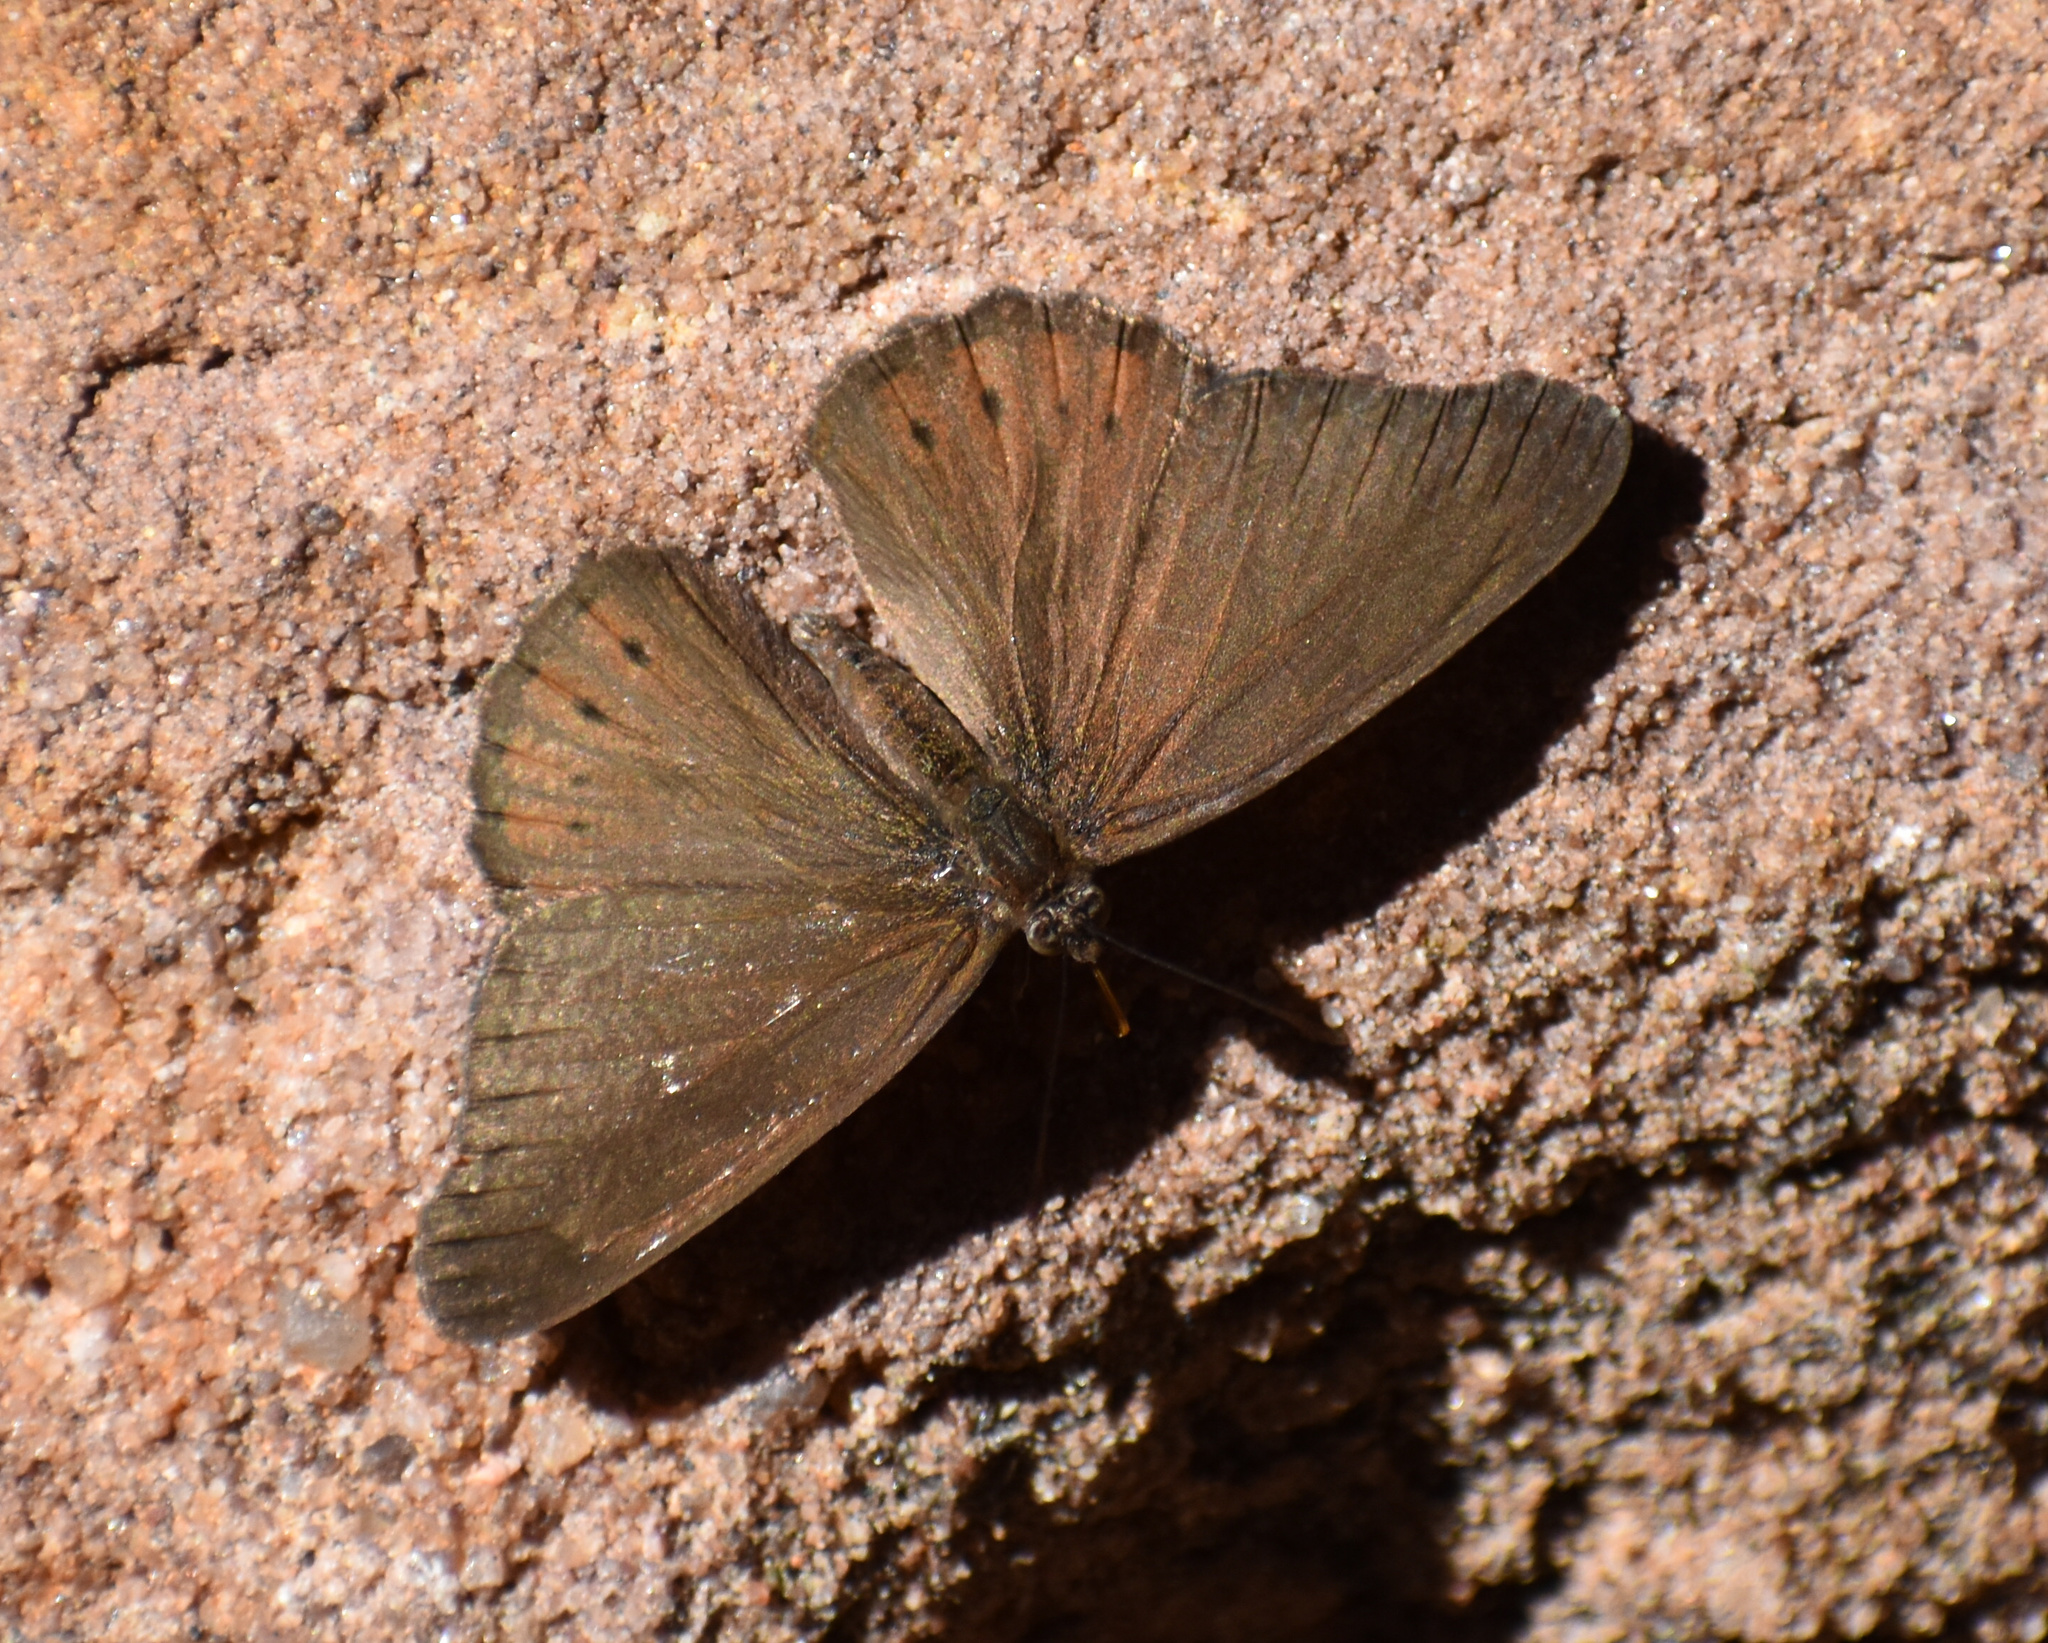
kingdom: Animalia
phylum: Arthropoda
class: Insecta
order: Lepidoptera
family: Nymphalidae
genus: Asterope
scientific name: Asterope boisduvali
